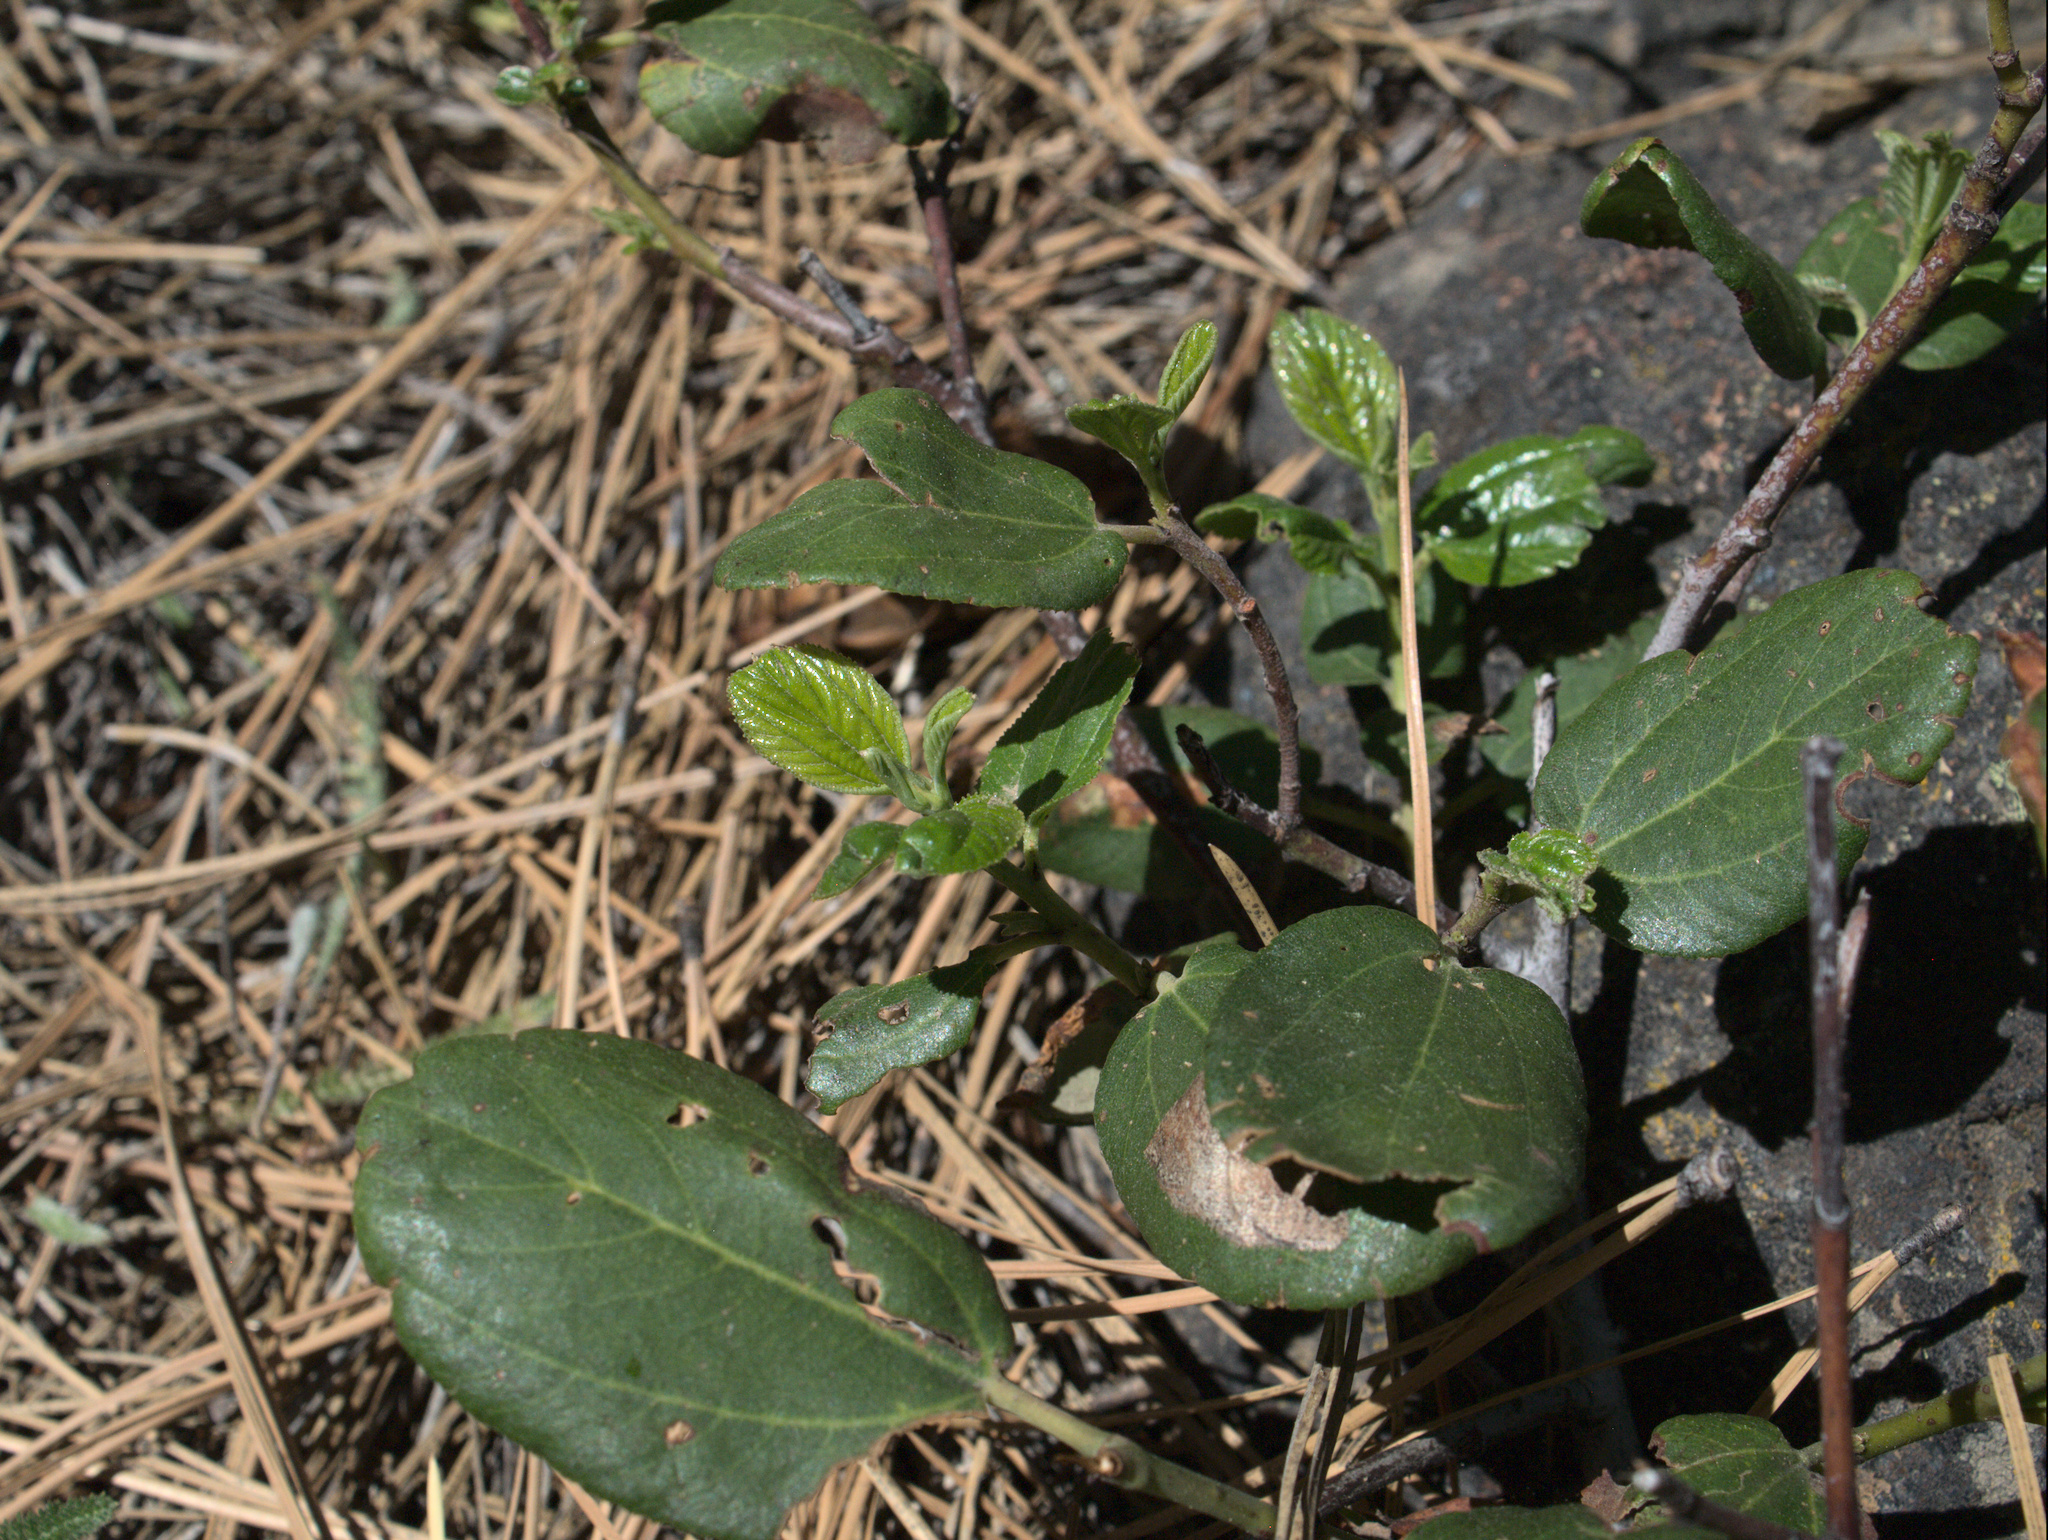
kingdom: Plantae
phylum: Tracheophyta
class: Magnoliopsida
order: Rosales
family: Rhamnaceae
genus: Ceanothus
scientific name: Ceanothus velutinus
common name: Snowbrush
